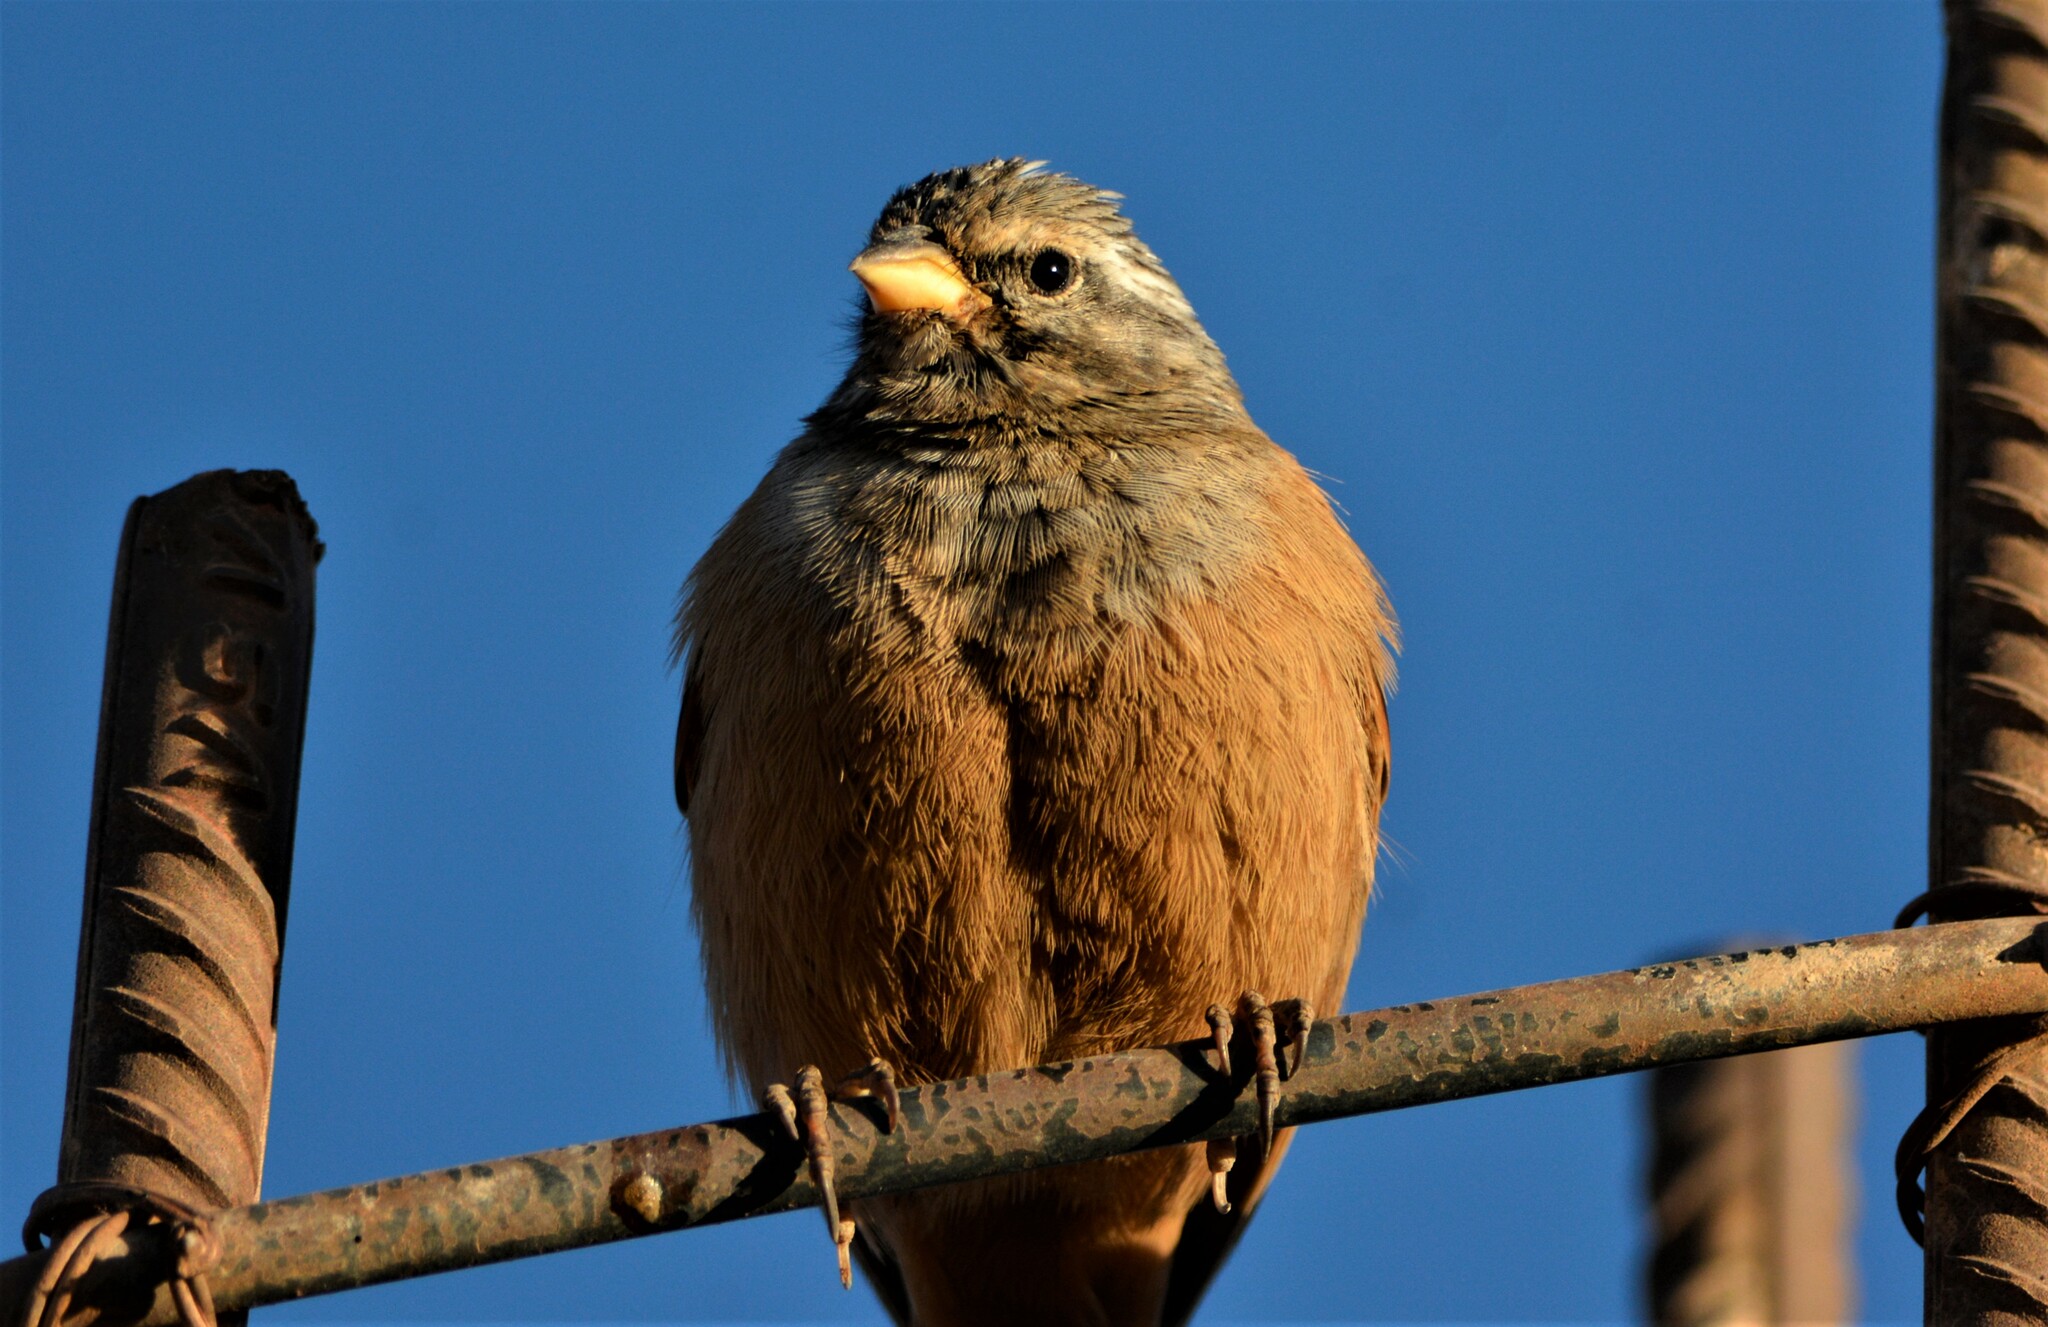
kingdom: Animalia
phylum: Chordata
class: Aves
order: Passeriformes
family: Emberizidae
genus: Emberiza
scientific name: Emberiza sahari
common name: House bunting
